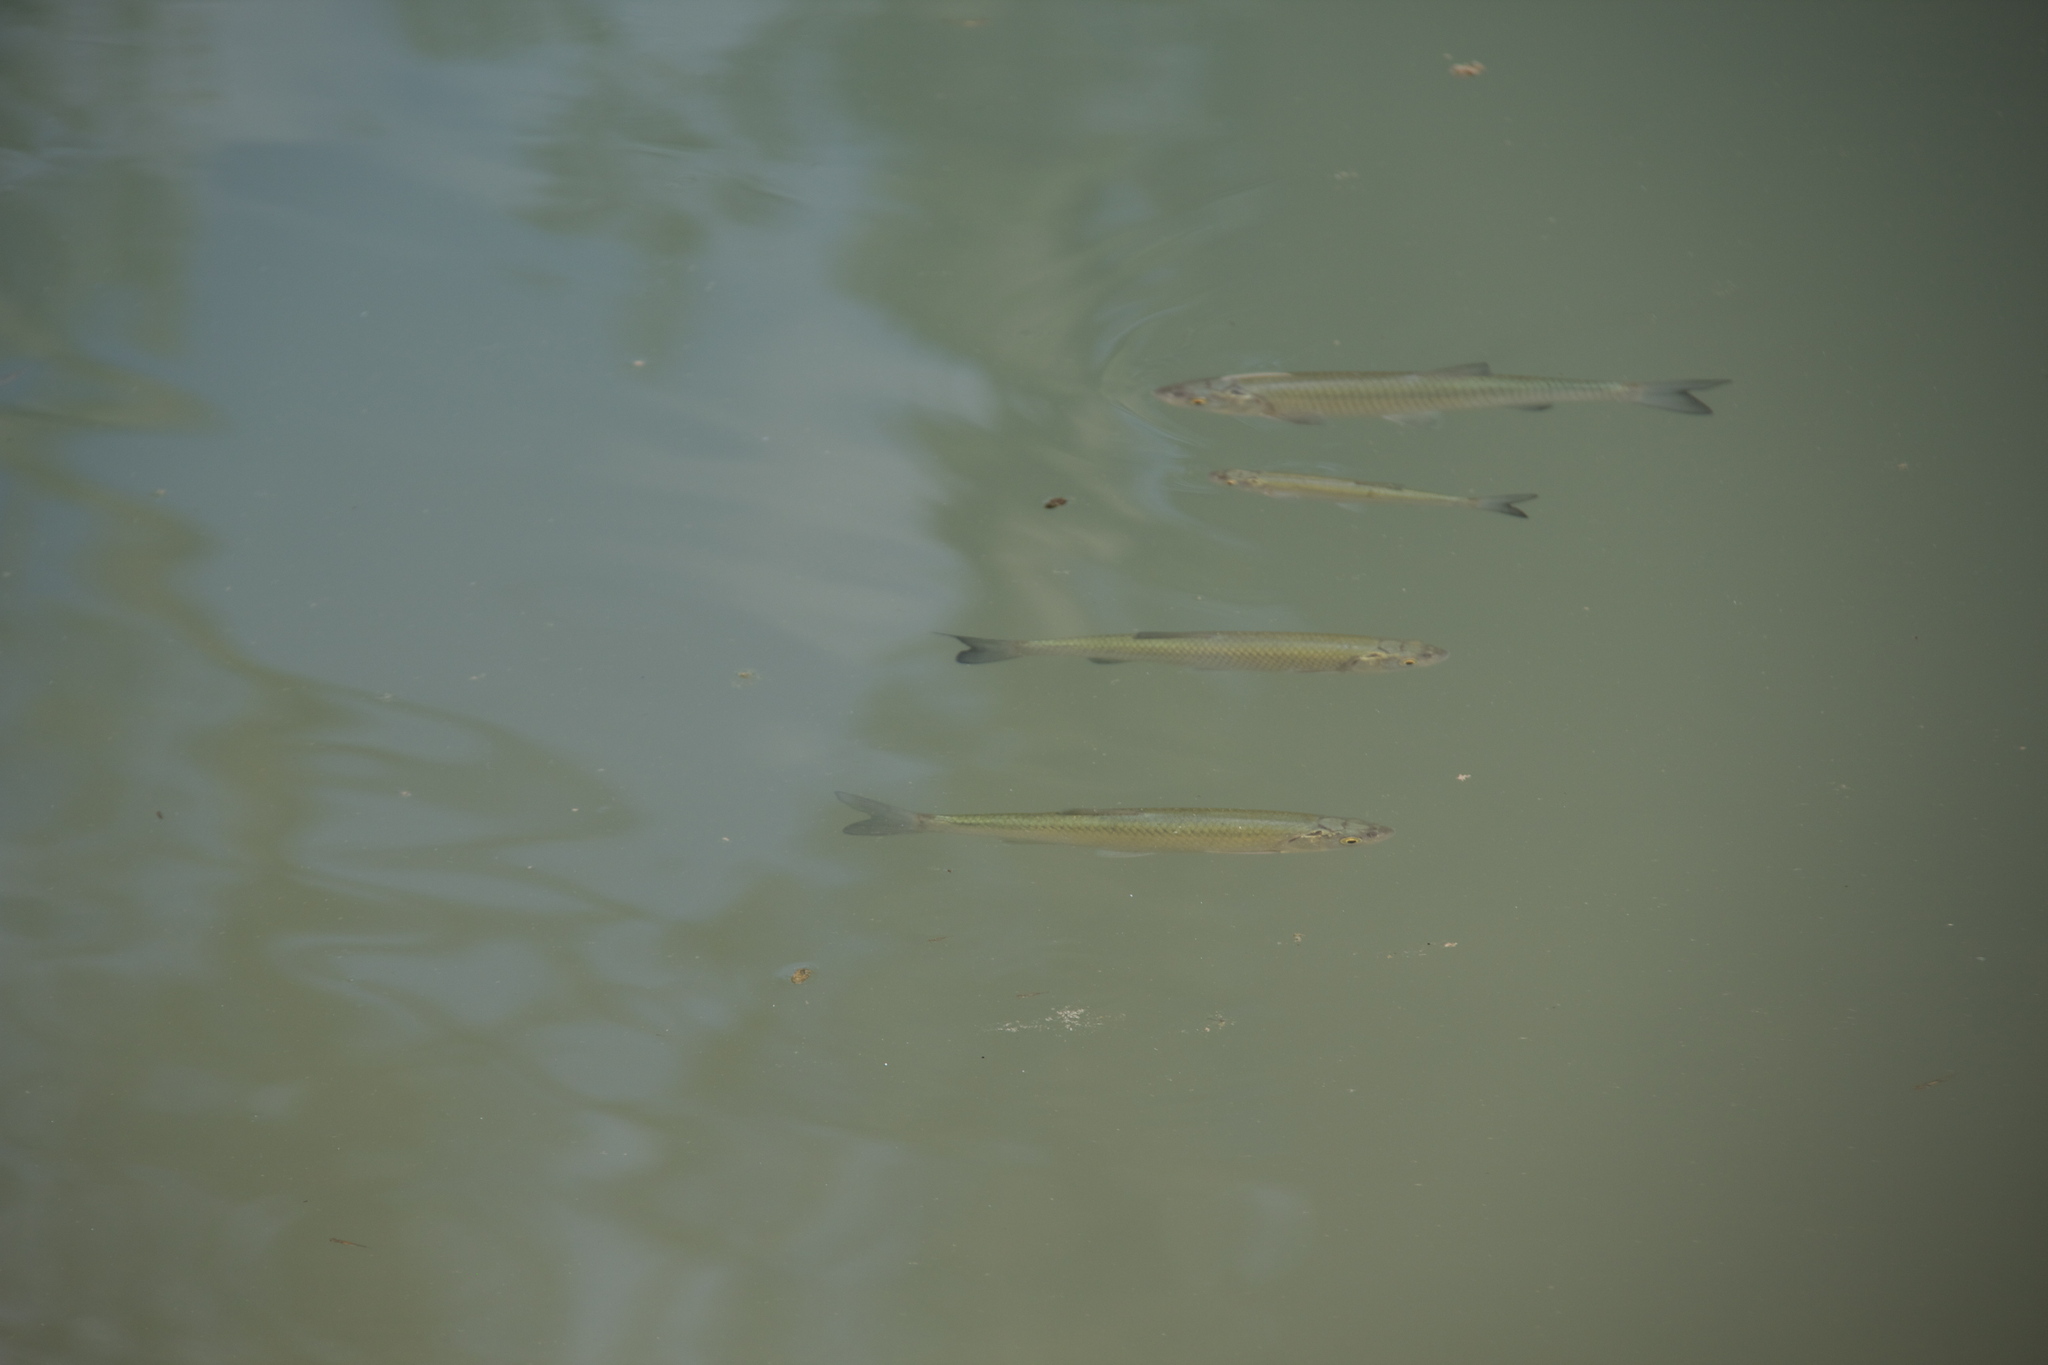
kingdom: Animalia
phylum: Chordata
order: Cypriniformes
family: Cyprinidae
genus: Squalius
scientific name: Squalius squalus
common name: Italian chub
